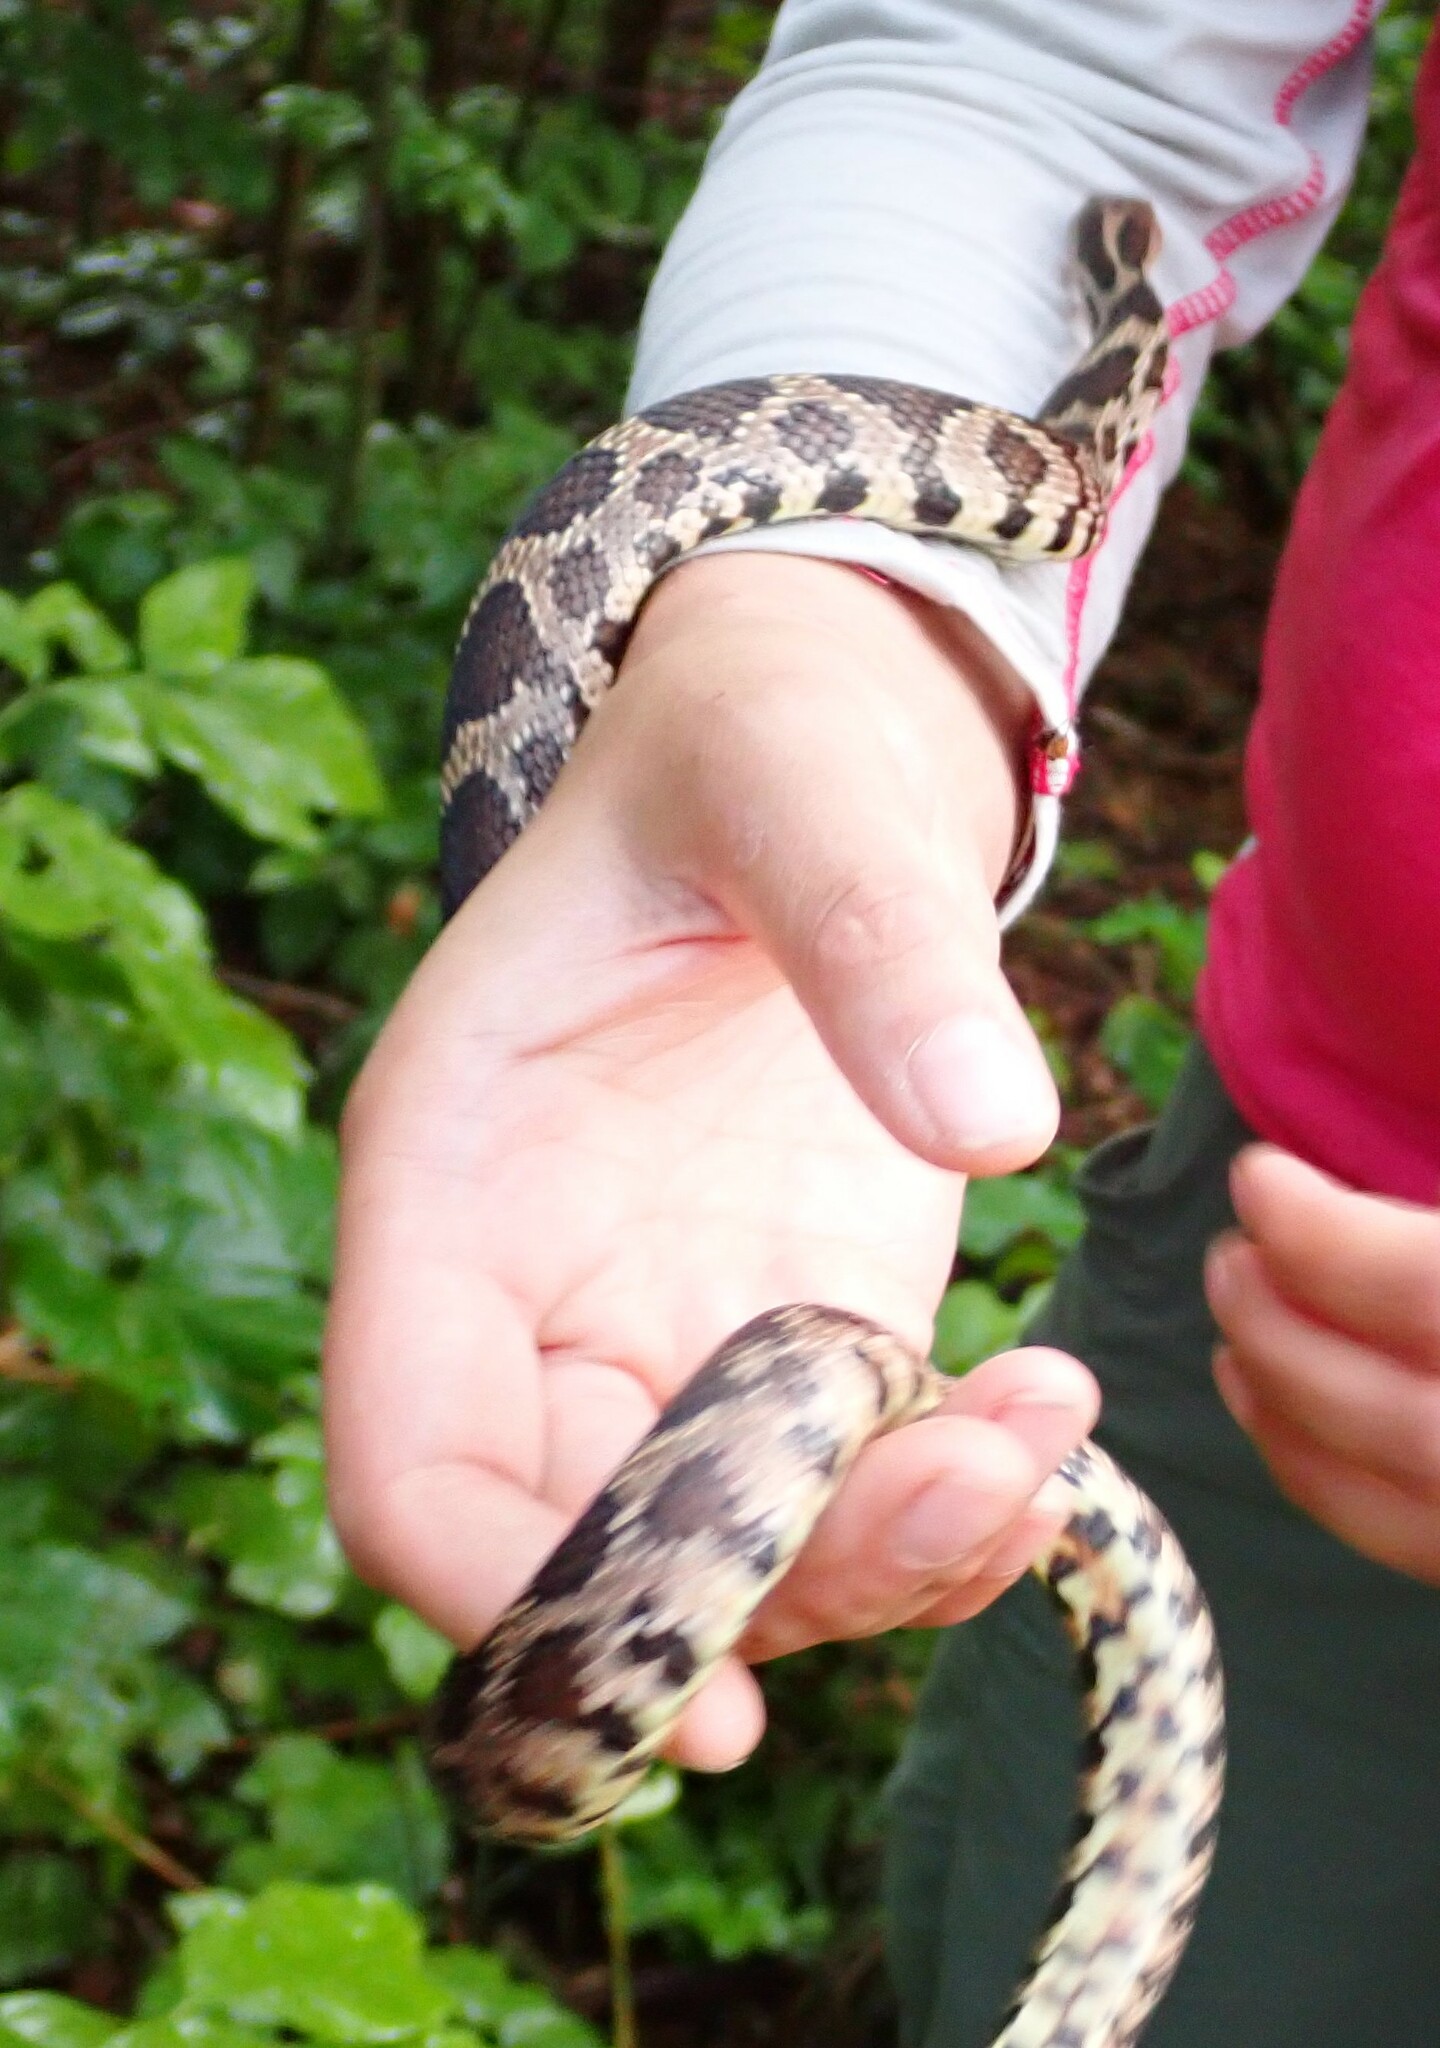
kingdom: Animalia
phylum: Chordata
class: Squamata
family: Colubridae
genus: Pantherophis
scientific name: Pantherophis vulpinus
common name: Eastern fox snake
